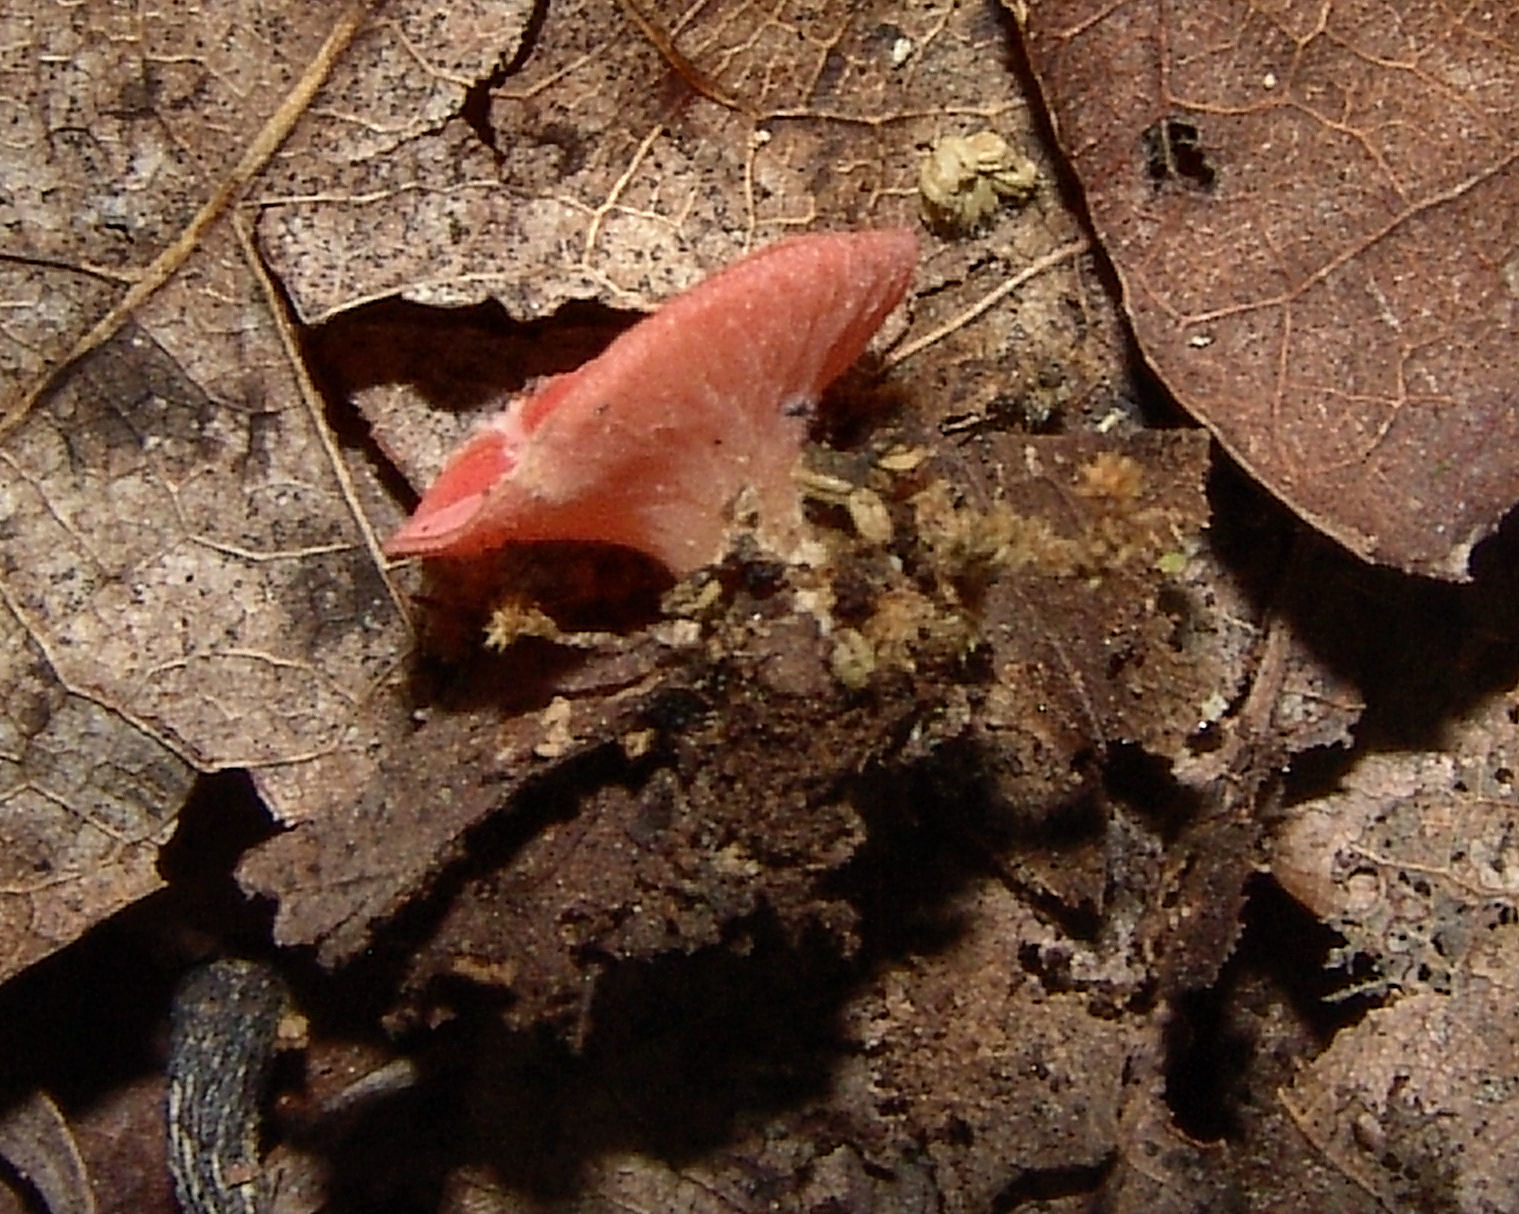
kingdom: Fungi
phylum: Ascomycota
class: Pezizomycetes
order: Pezizales
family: Sarcoscyphaceae
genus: Sarcoscypha
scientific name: Sarcoscypha occidentalis
